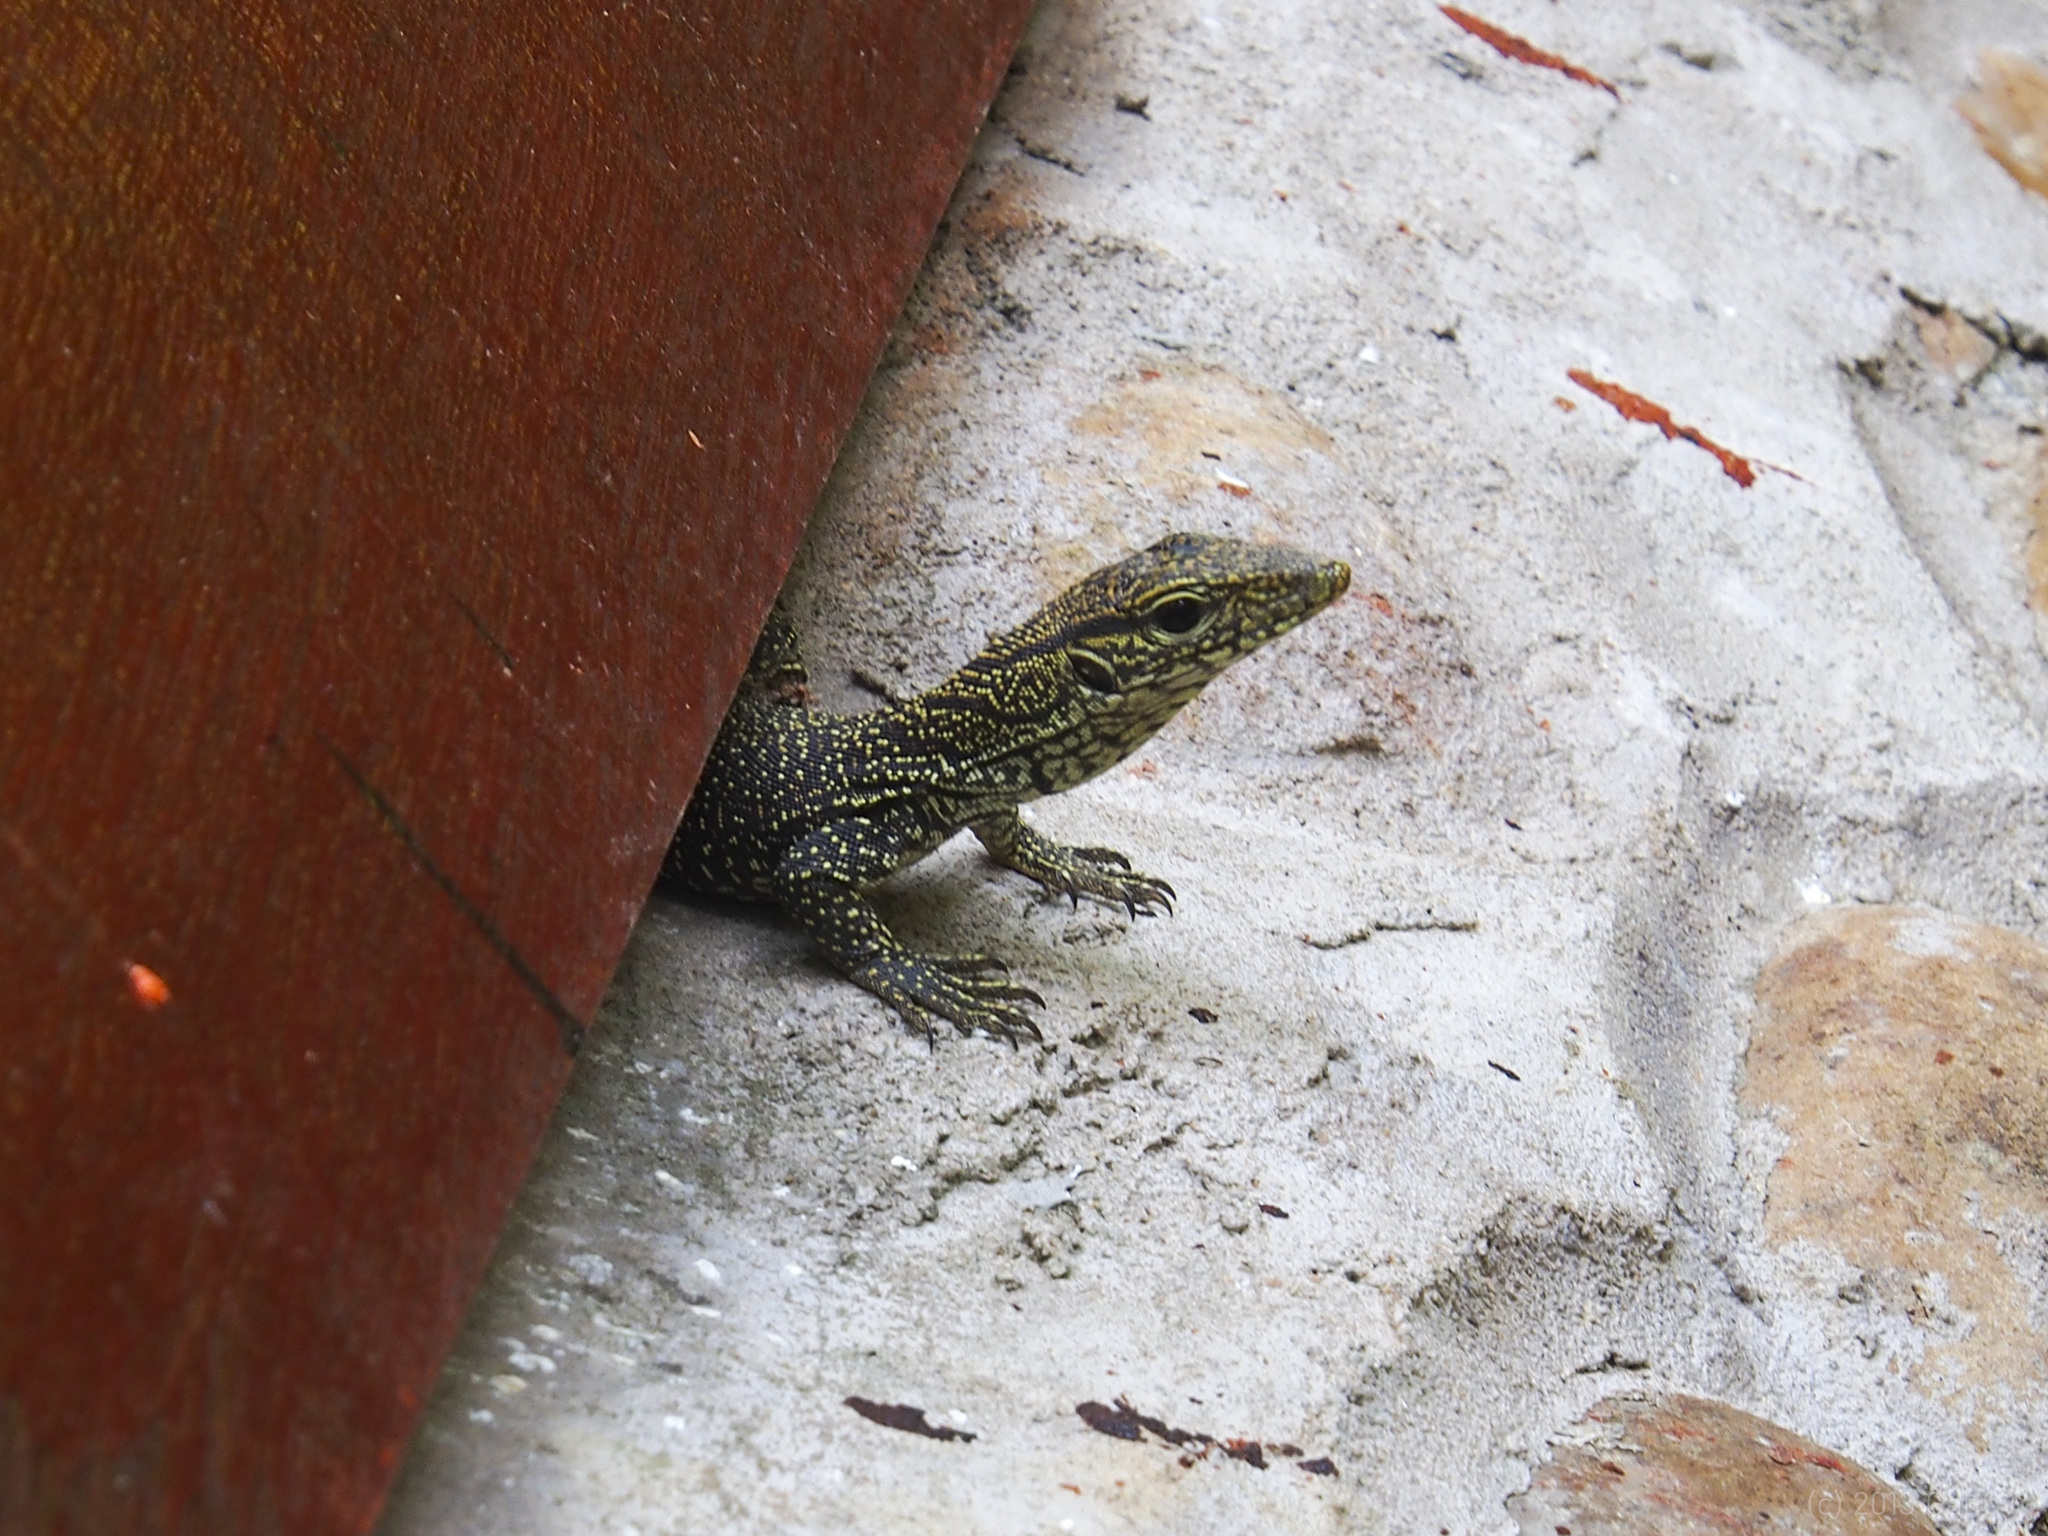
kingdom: Animalia
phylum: Chordata
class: Squamata
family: Varanidae
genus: Varanus
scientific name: Varanus nebulosus
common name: Clouded monitor
